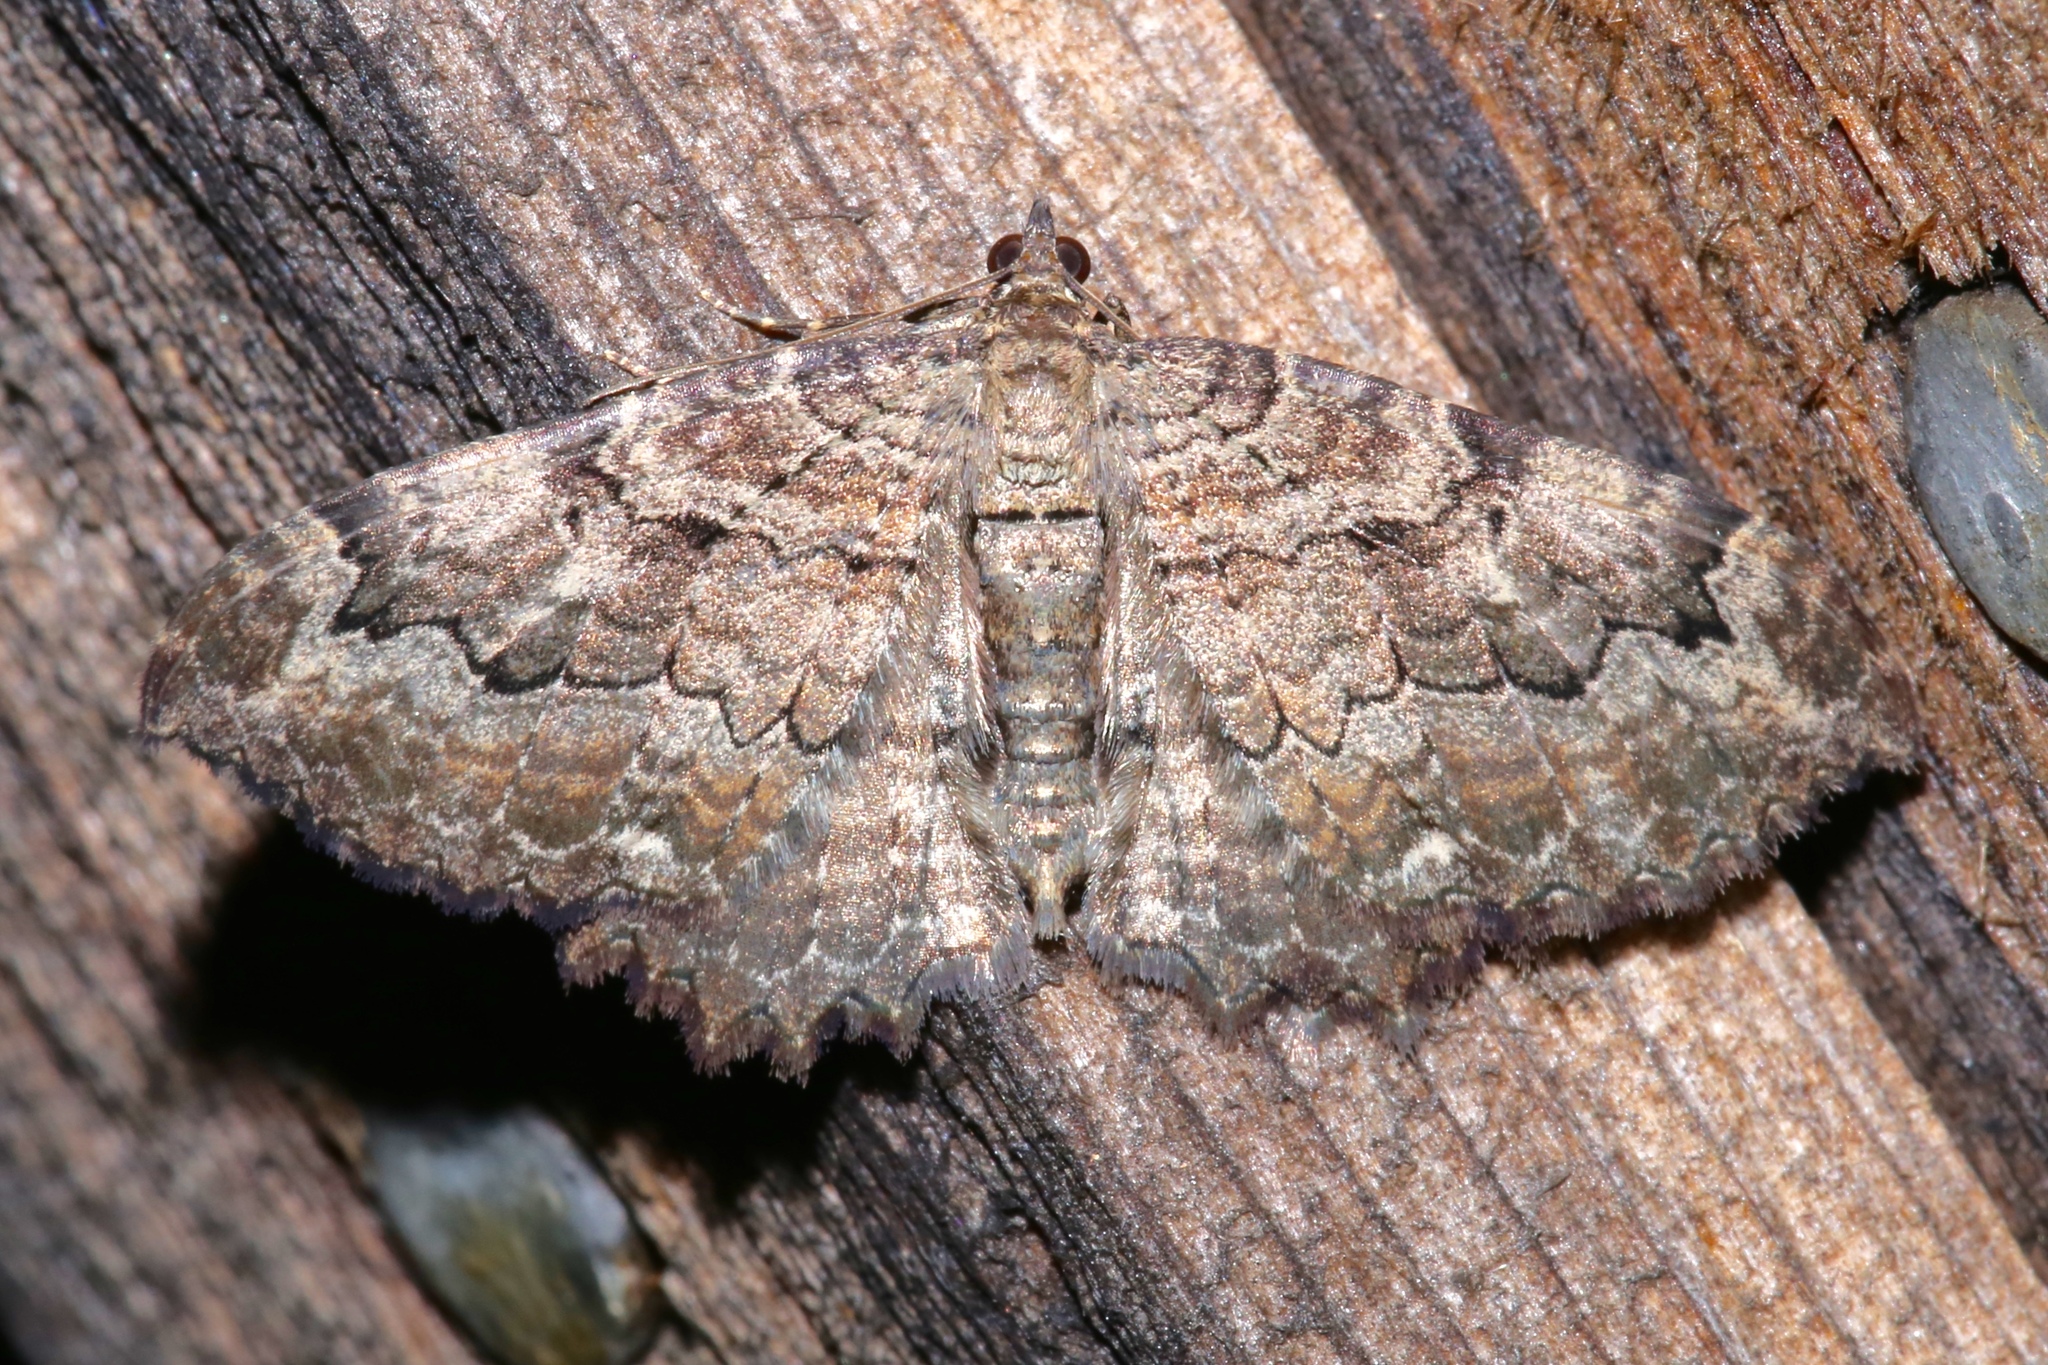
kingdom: Animalia
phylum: Arthropoda
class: Insecta
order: Lepidoptera
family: Geometridae
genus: Rheumaptera
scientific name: Rheumaptera
